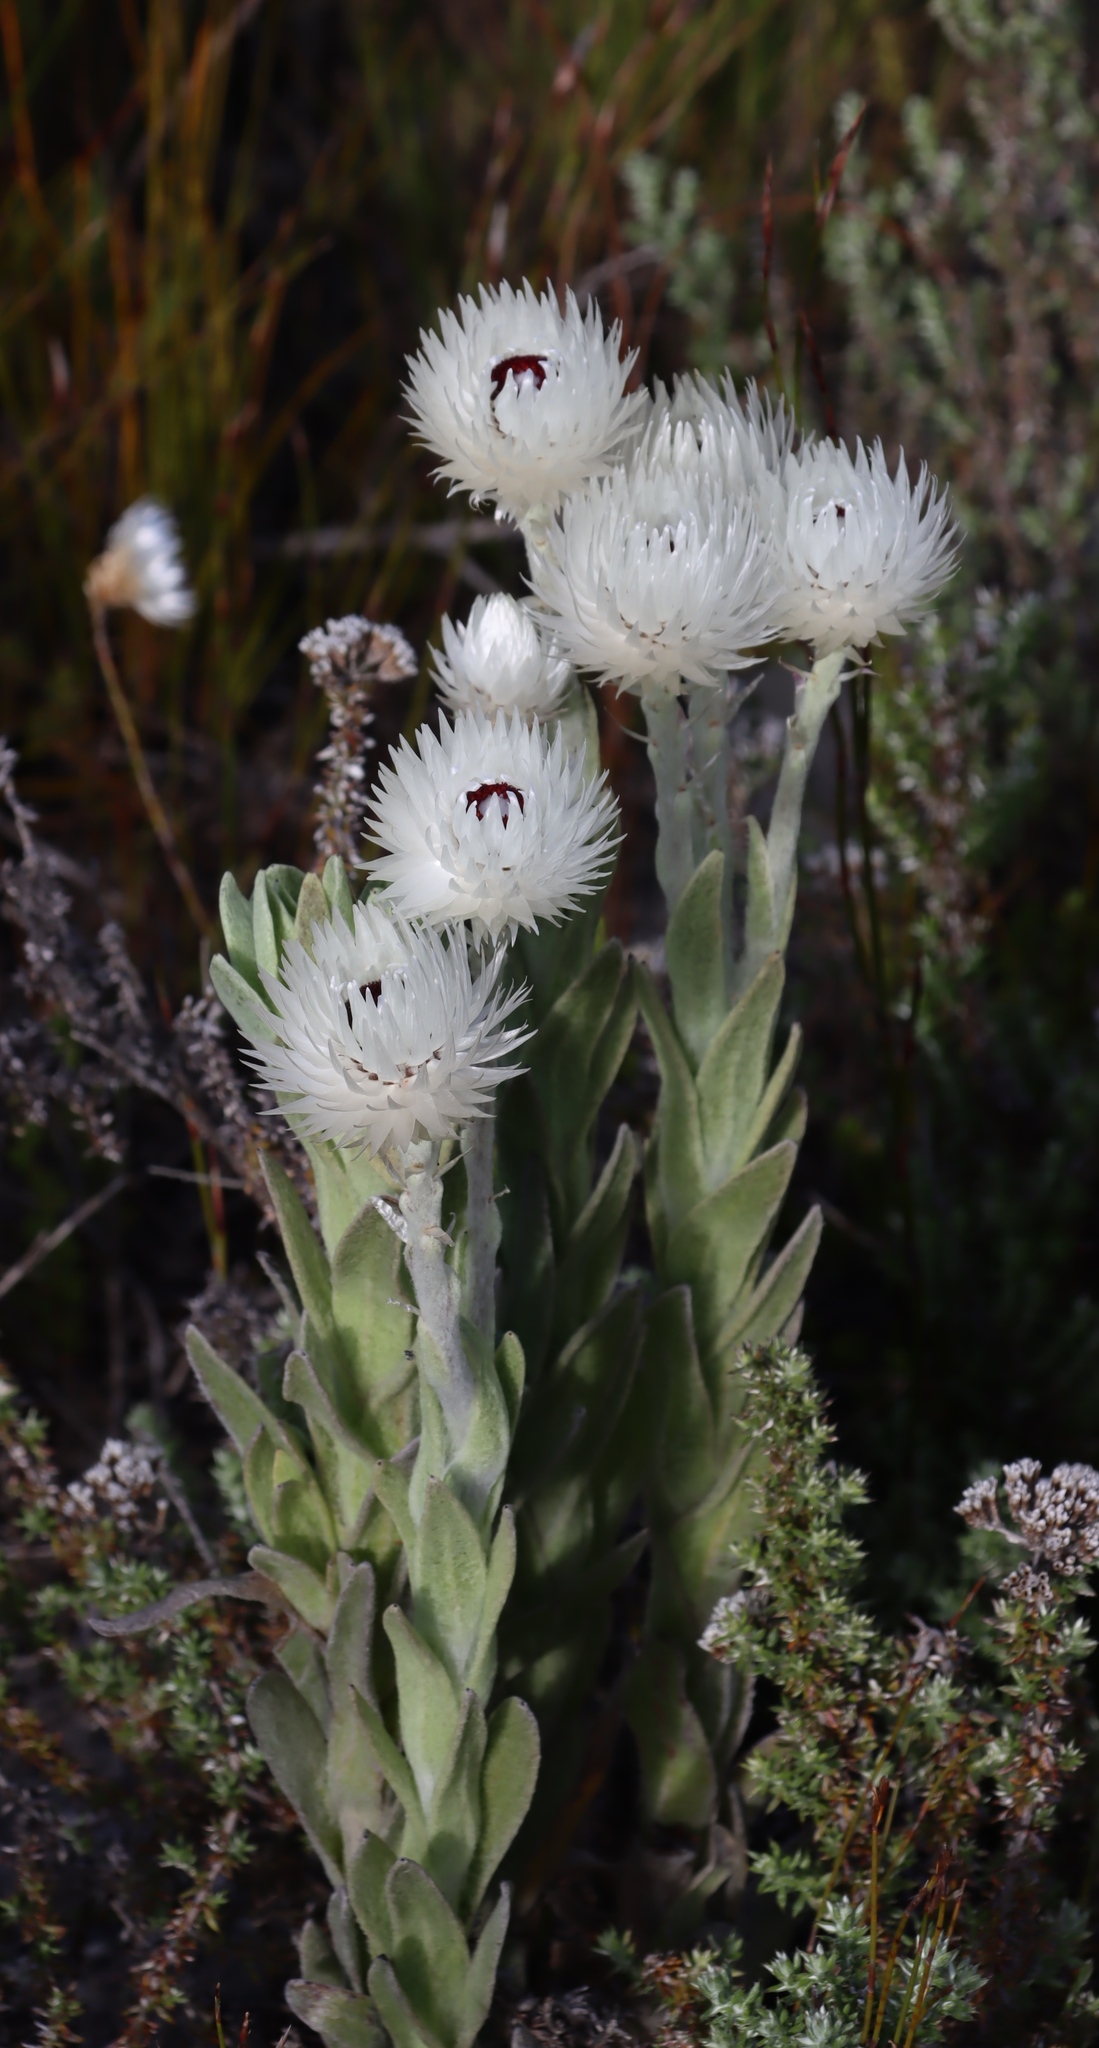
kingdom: Plantae
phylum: Tracheophyta
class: Magnoliopsida
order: Asterales
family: Asteraceae
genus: Syncarpha
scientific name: Syncarpha vestita
